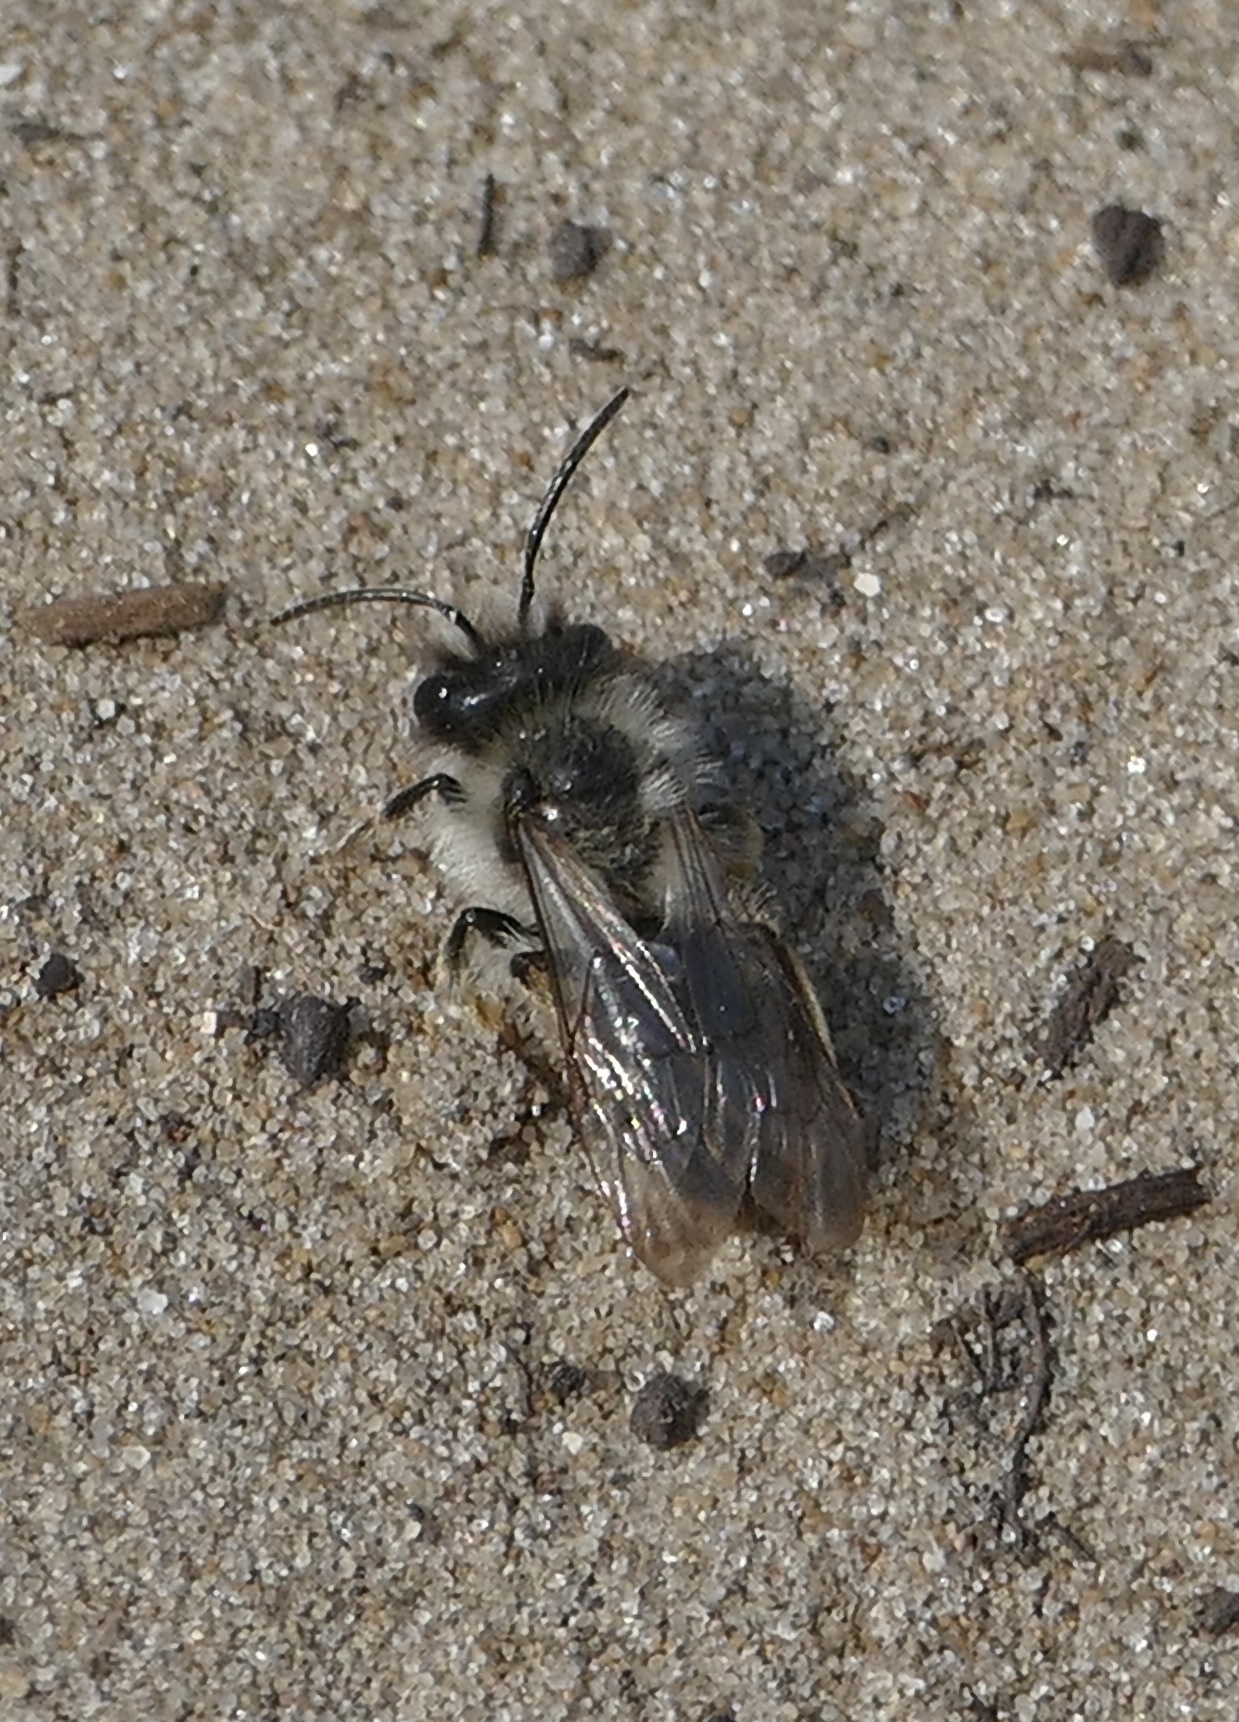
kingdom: Animalia
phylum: Arthropoda
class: Insecta
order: Hymenoptera
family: Andrenidae
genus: Andrena
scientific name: Andrena vaga
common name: Grey-backed mining bee
